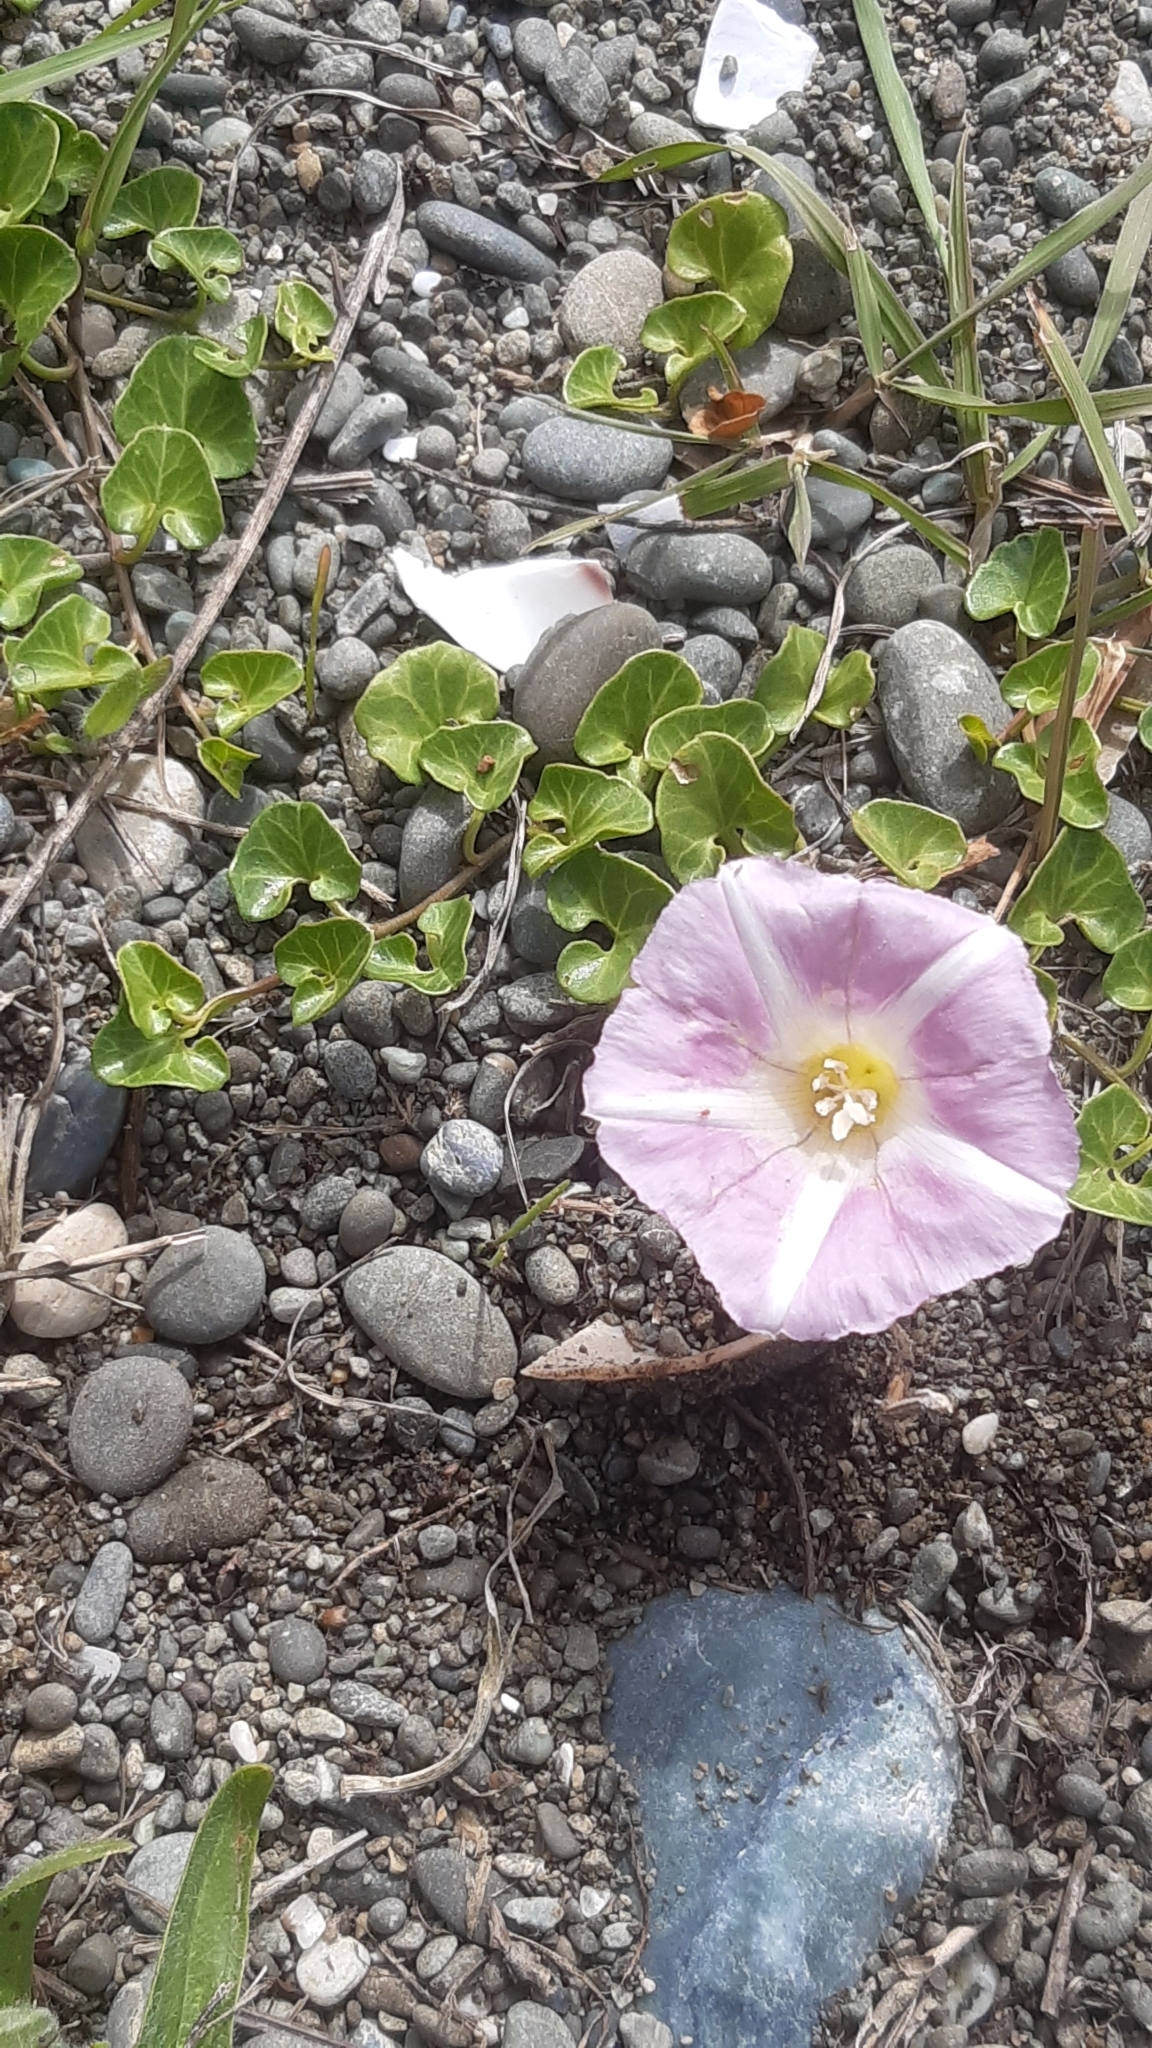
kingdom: Plantae
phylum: Tracheophyta
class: Magnoliopsida
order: Solanales
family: Convolvulaceae
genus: Calystegia
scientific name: Calystegia soldanella
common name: Sea bindweed
